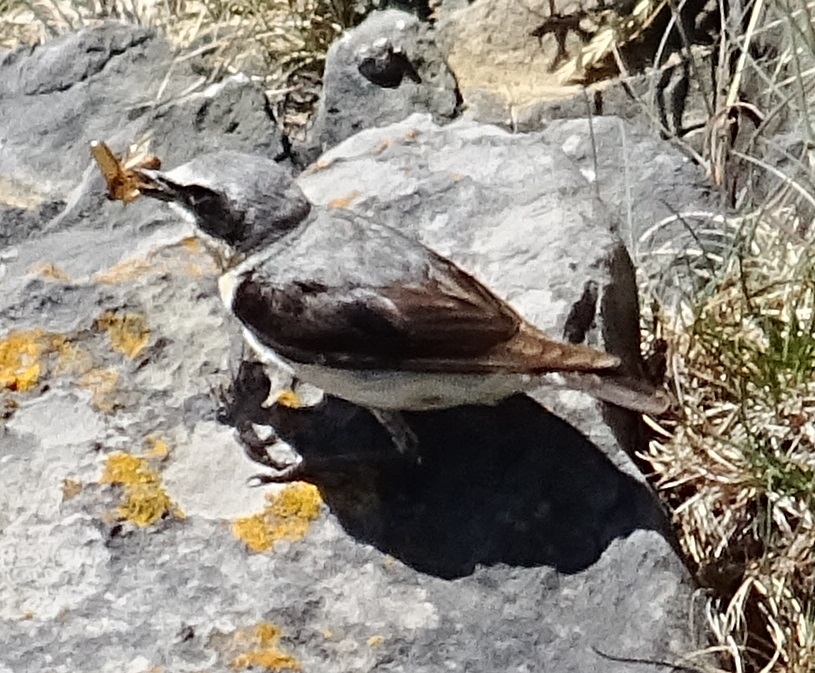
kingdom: Animalia
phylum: Chordata
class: Aves
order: Passeriformes
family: Muscicapidae
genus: Oenanthe
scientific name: Oenanthe oenanthe
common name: Northern wheatear
